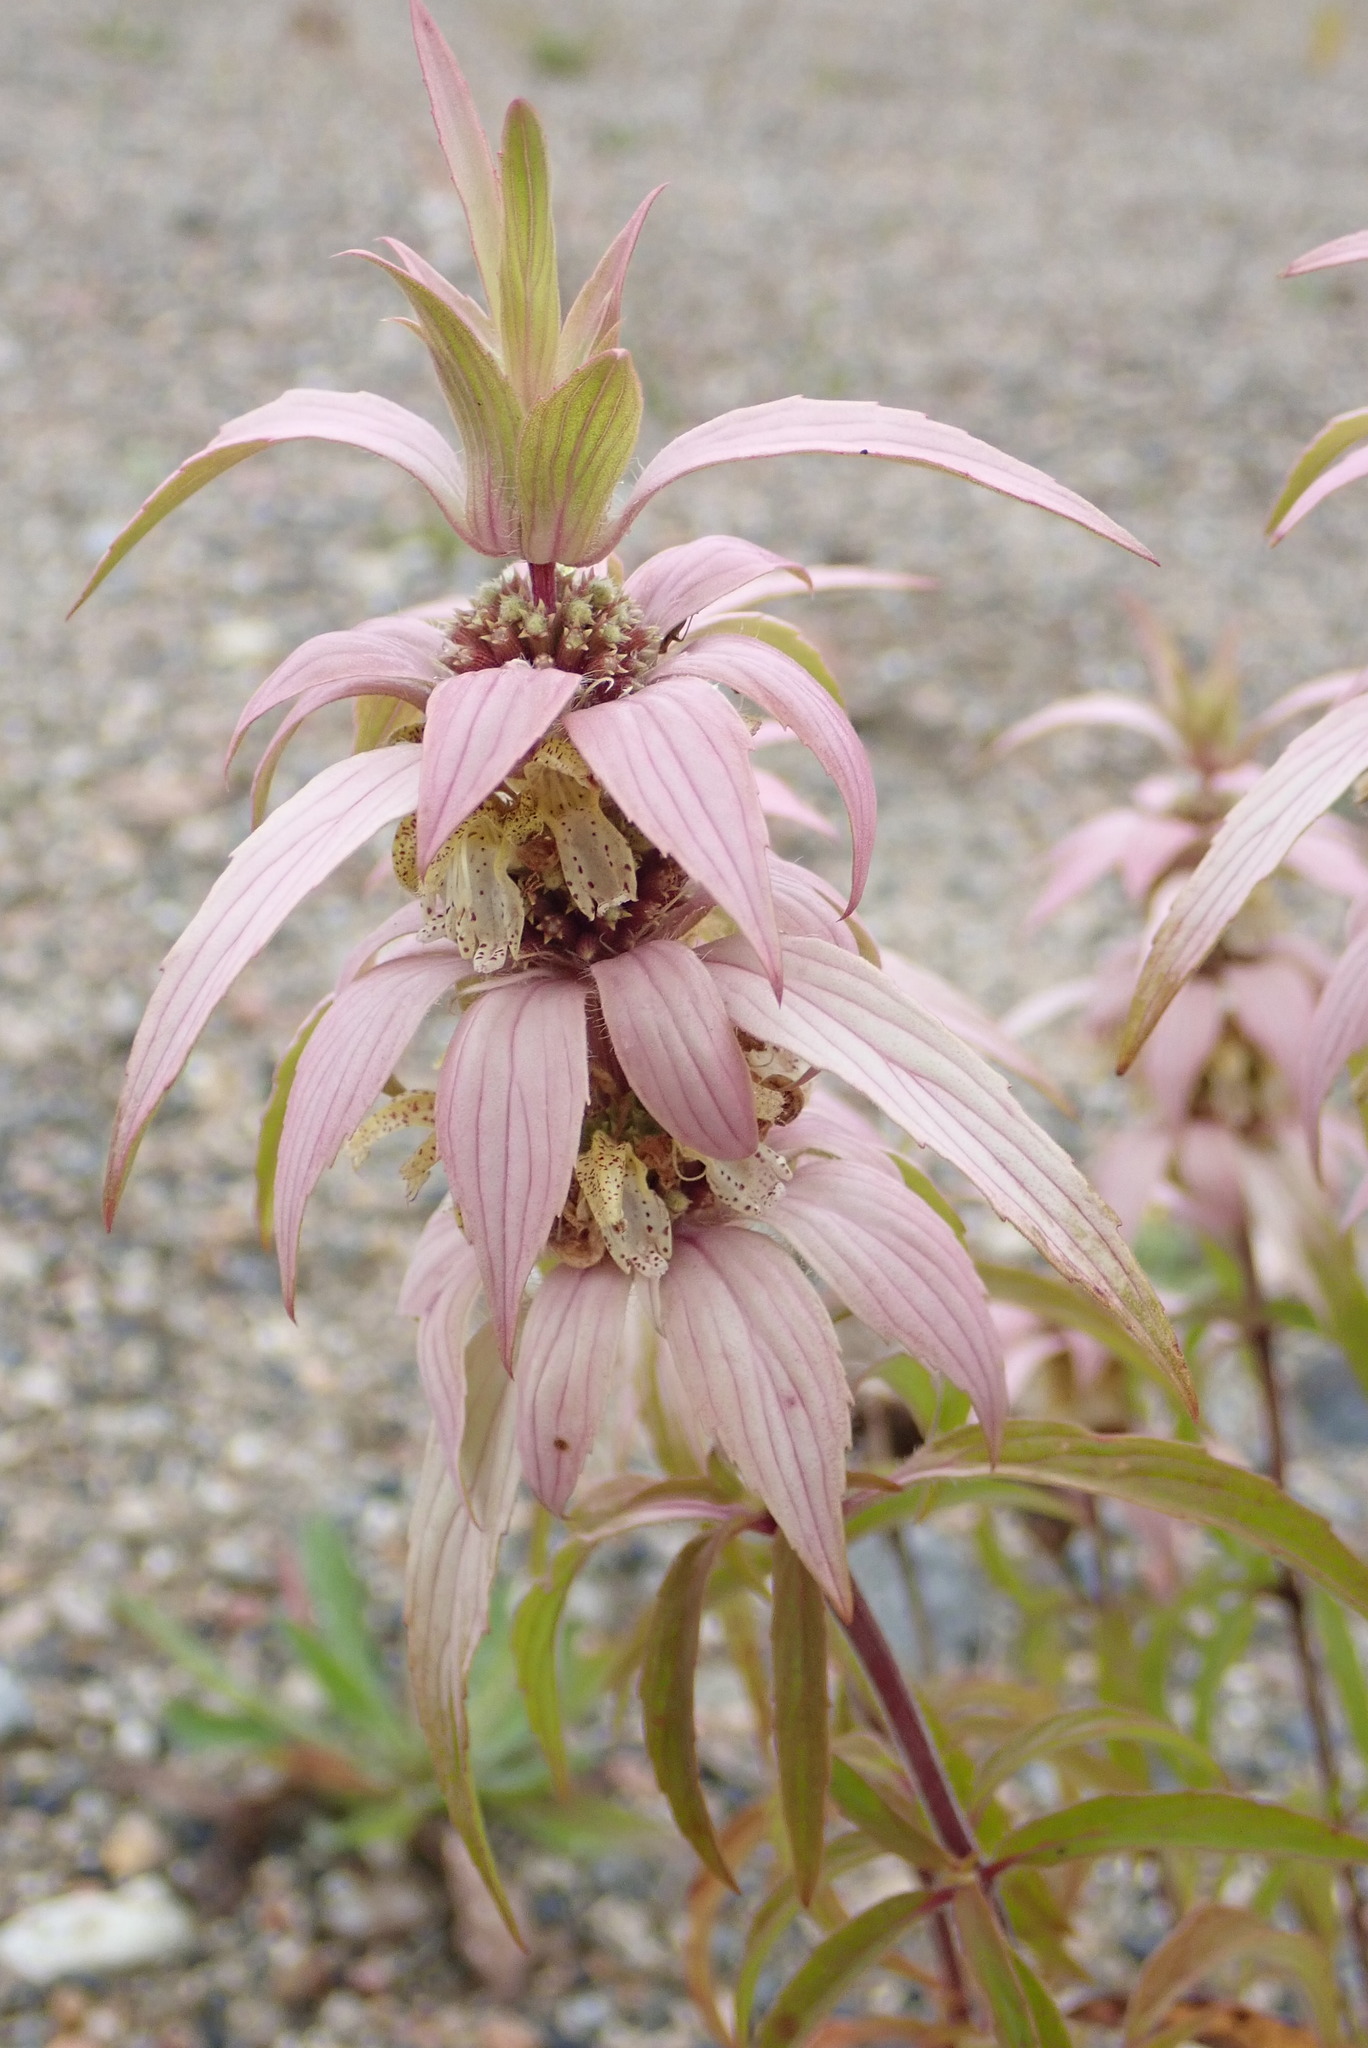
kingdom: Plantae
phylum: Tracheophyta
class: Magnoliopsida
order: Lamiales
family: Lamiaceae
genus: Monarda
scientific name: Monarda punctata
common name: Dotted monarda
